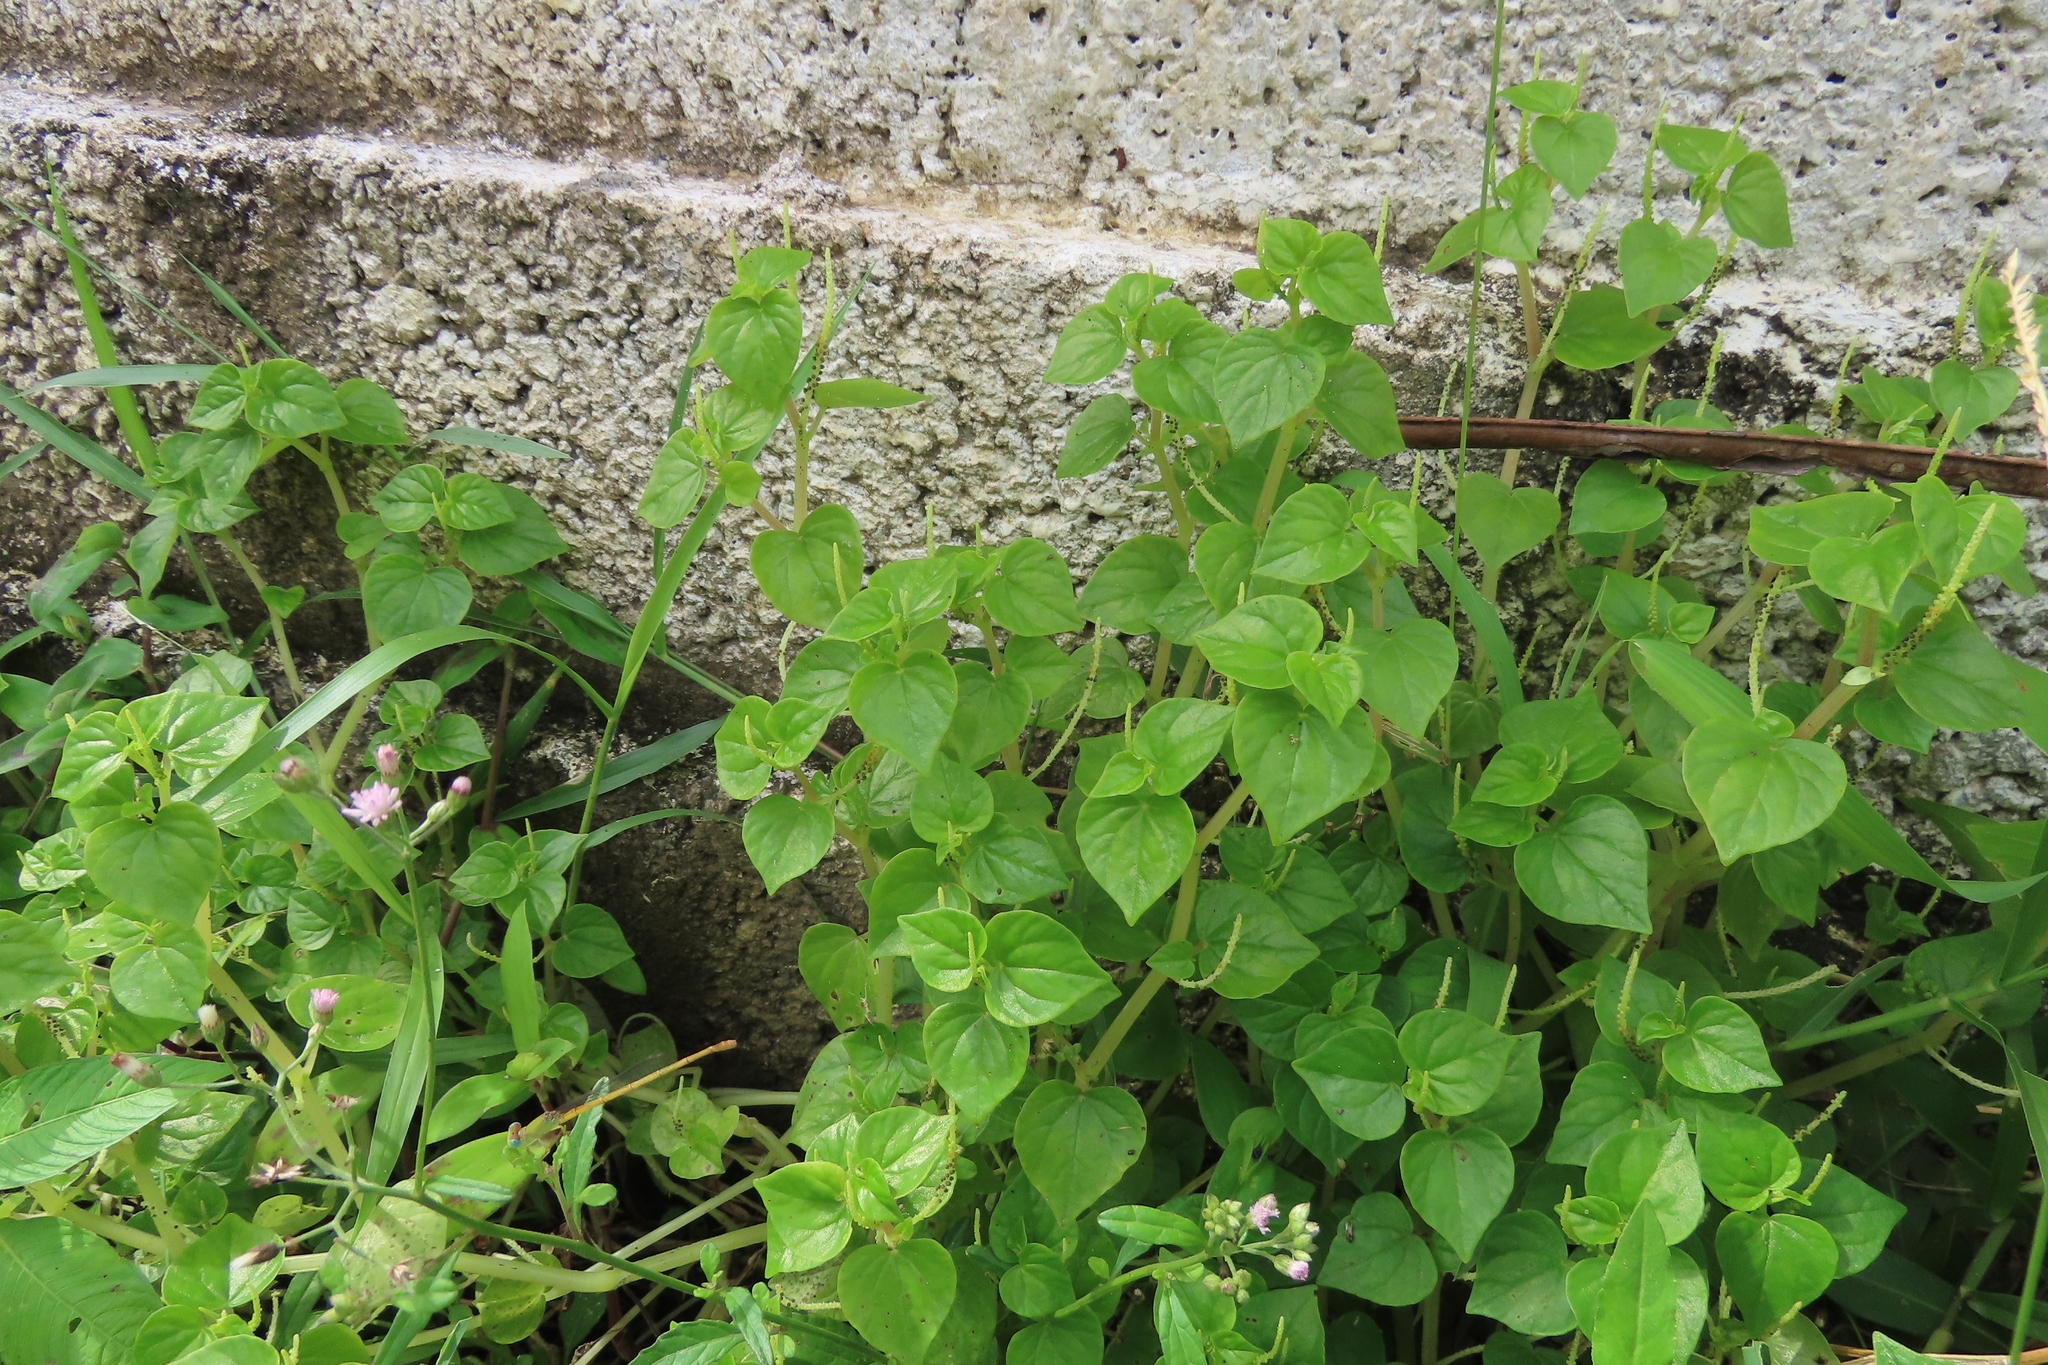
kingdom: Plantae
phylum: Tracheophyta
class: Magnoliopsida
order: Piperales
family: Piperaceae
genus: Peperomia
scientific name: Peperomia pellucida
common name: Man to man
